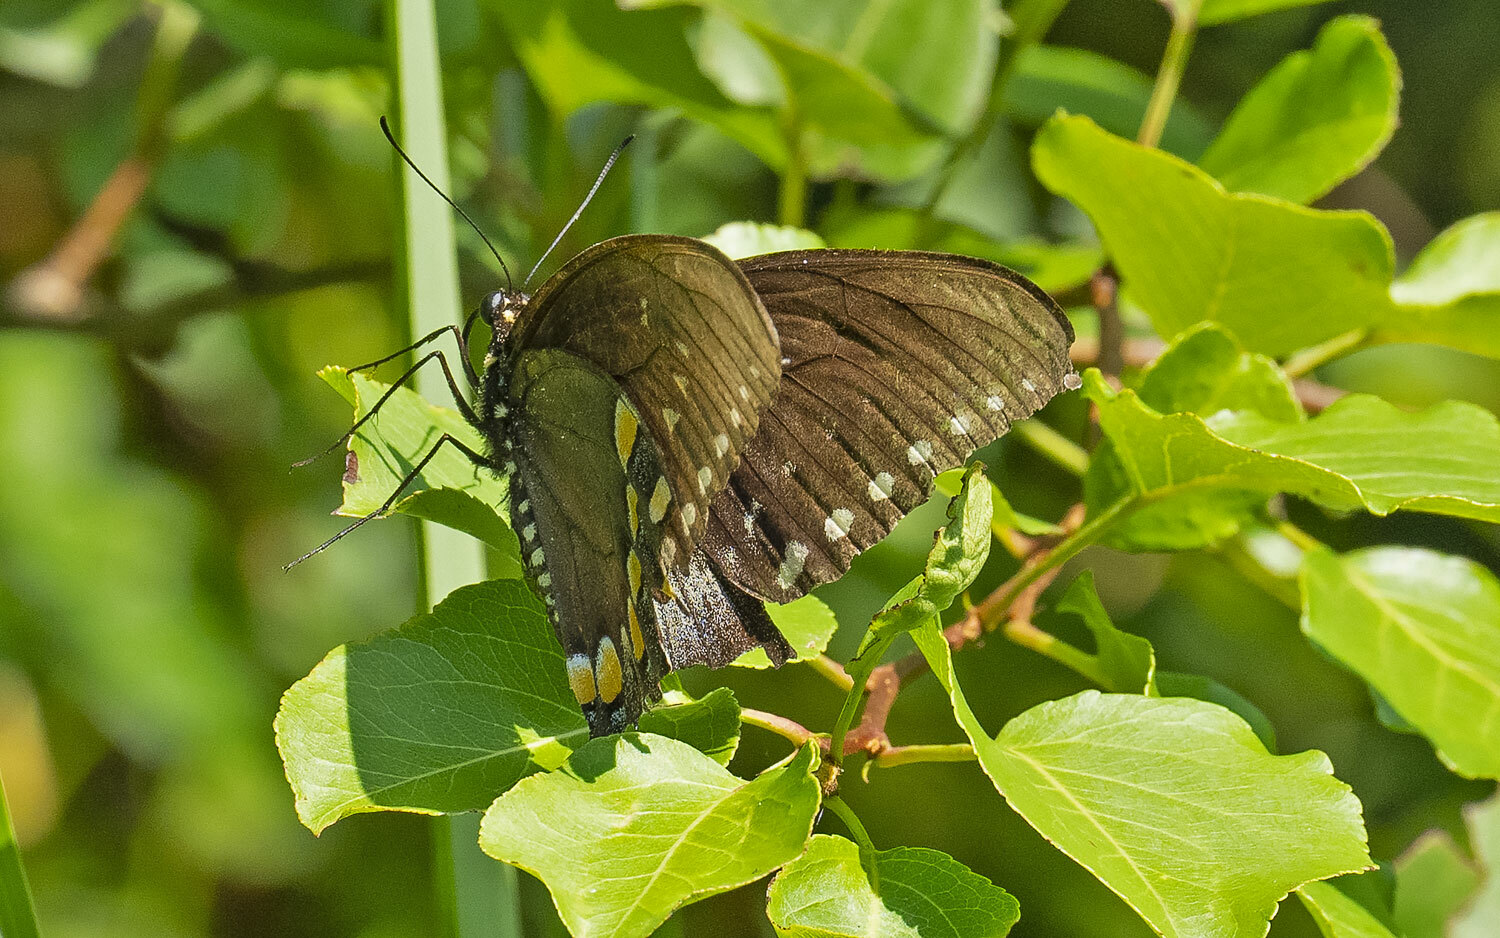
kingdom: Animalia
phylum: Arthropoda
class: Insecta
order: Lepidoptera
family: Papilionidae
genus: Papilio
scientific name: Papilio troilus
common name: Spicebush swallowtail
